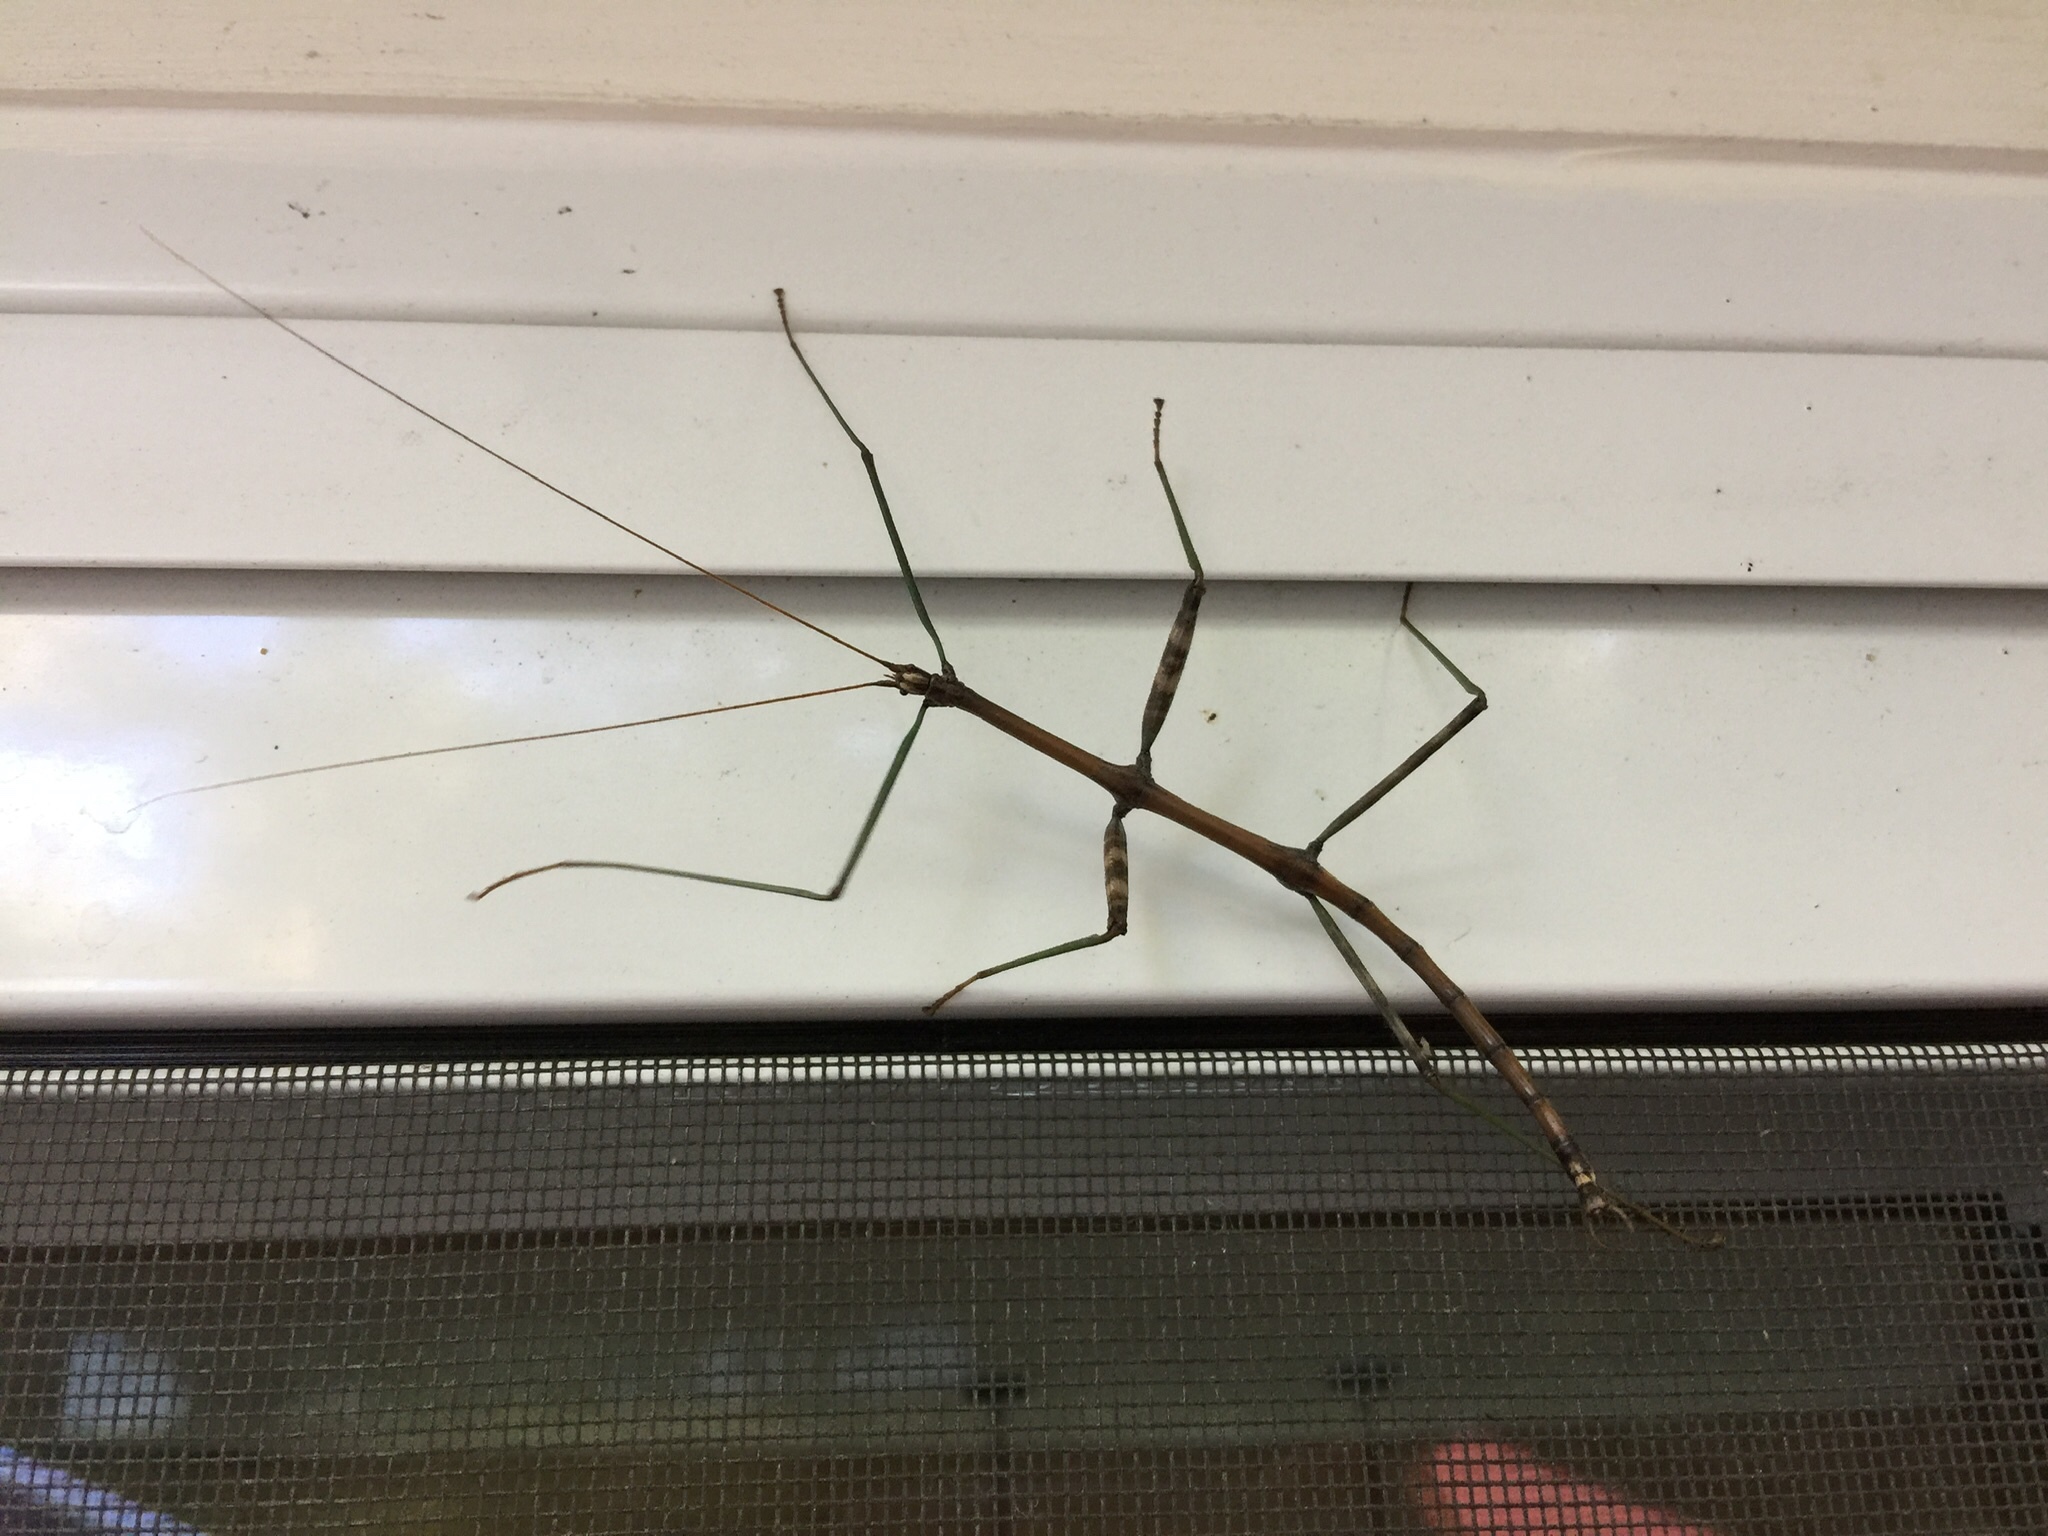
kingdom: Animalia
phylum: Arthropoda
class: Insecta
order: Phasmida
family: Diapheromeridae
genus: Diapheromera
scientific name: Diapheromera femorata
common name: Common american walkingstick
